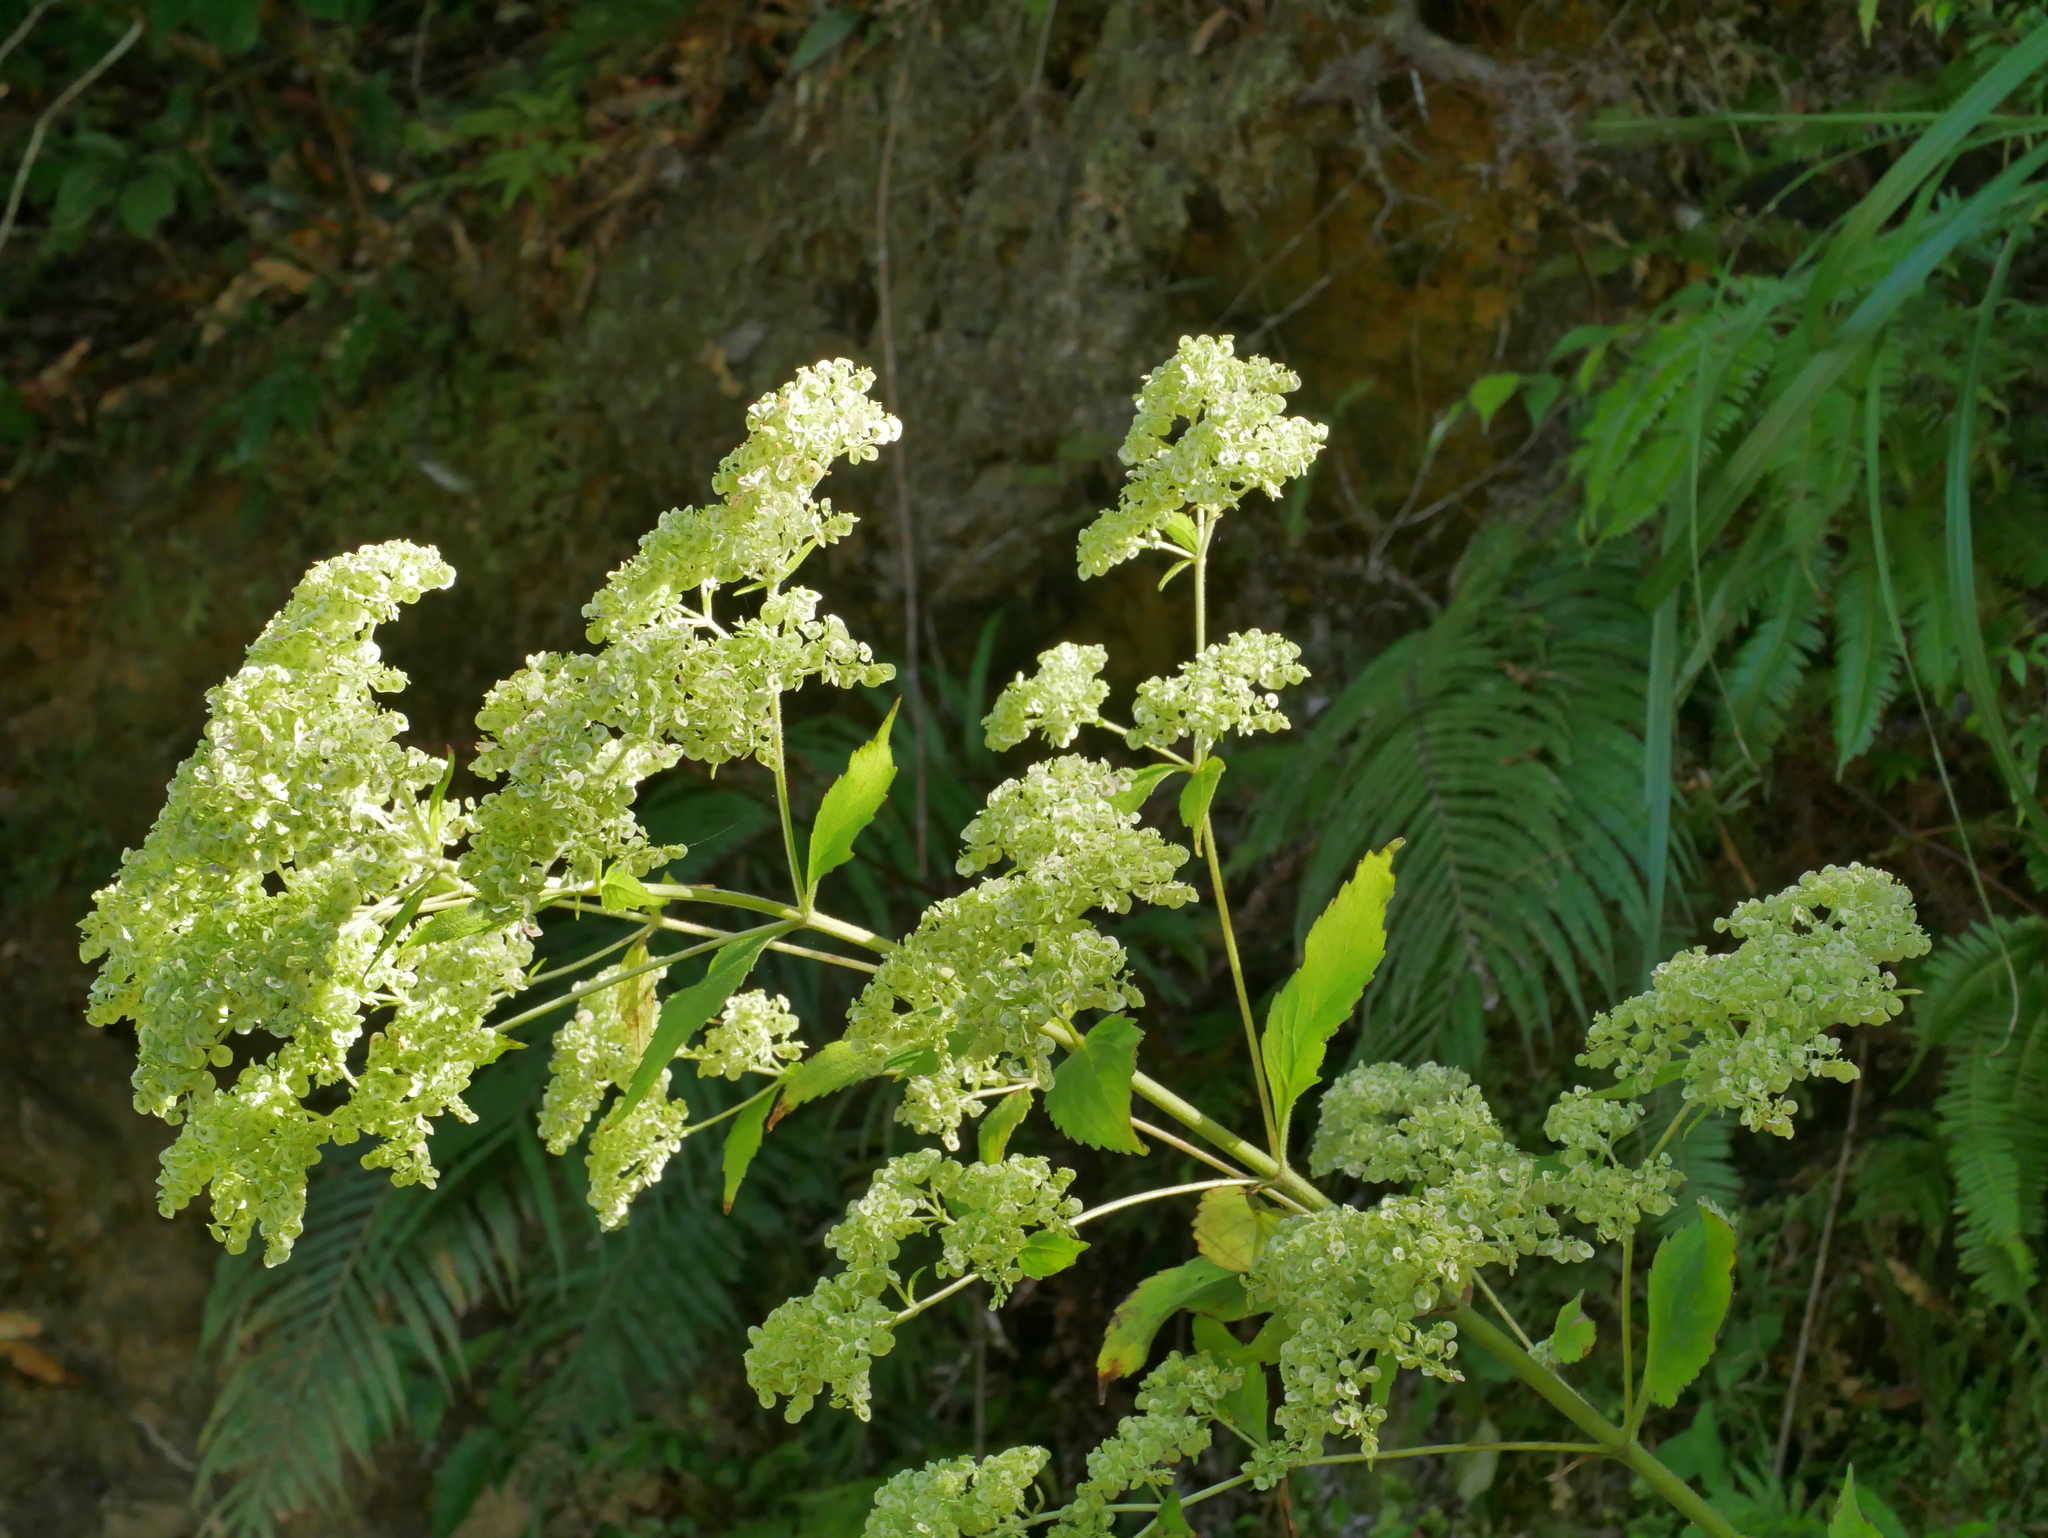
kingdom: Plantae
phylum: Tracheophyta
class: Magnoliopsida
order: Dipsacales
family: Caprifoliaceae
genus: Patrinia
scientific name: Patrinia monandra
